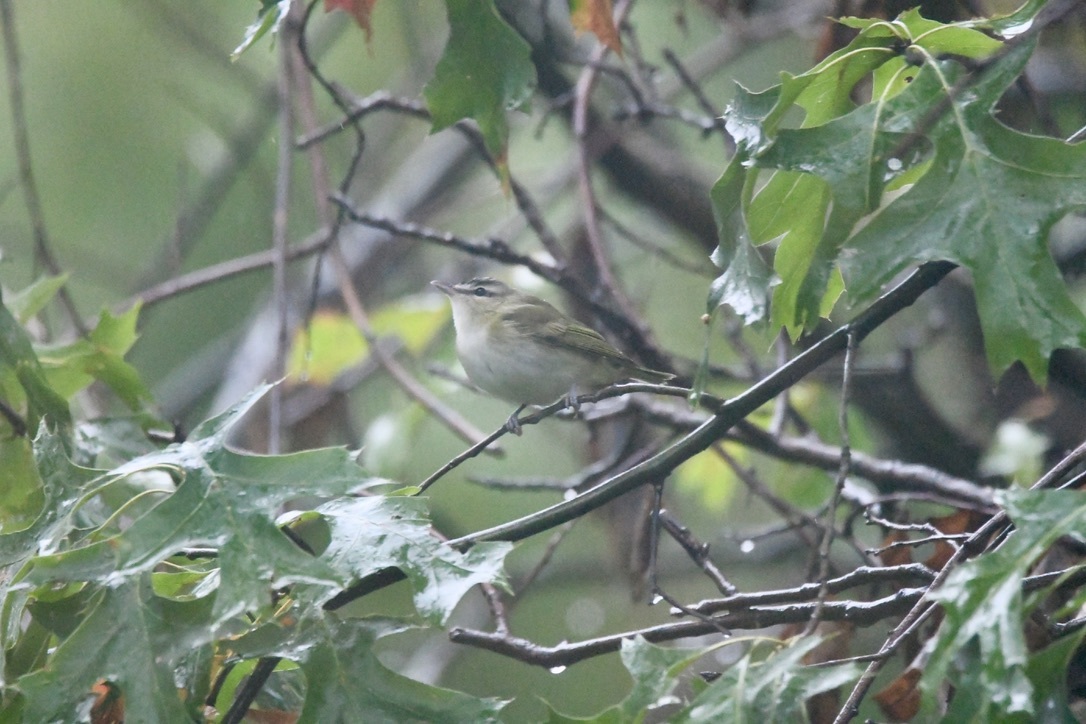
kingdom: Animalia
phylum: Chordata
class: Aves
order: Passeriformes
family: Vireonidae
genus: Vireo
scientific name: Vireo olivaceus
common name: Red-eyed vireo
